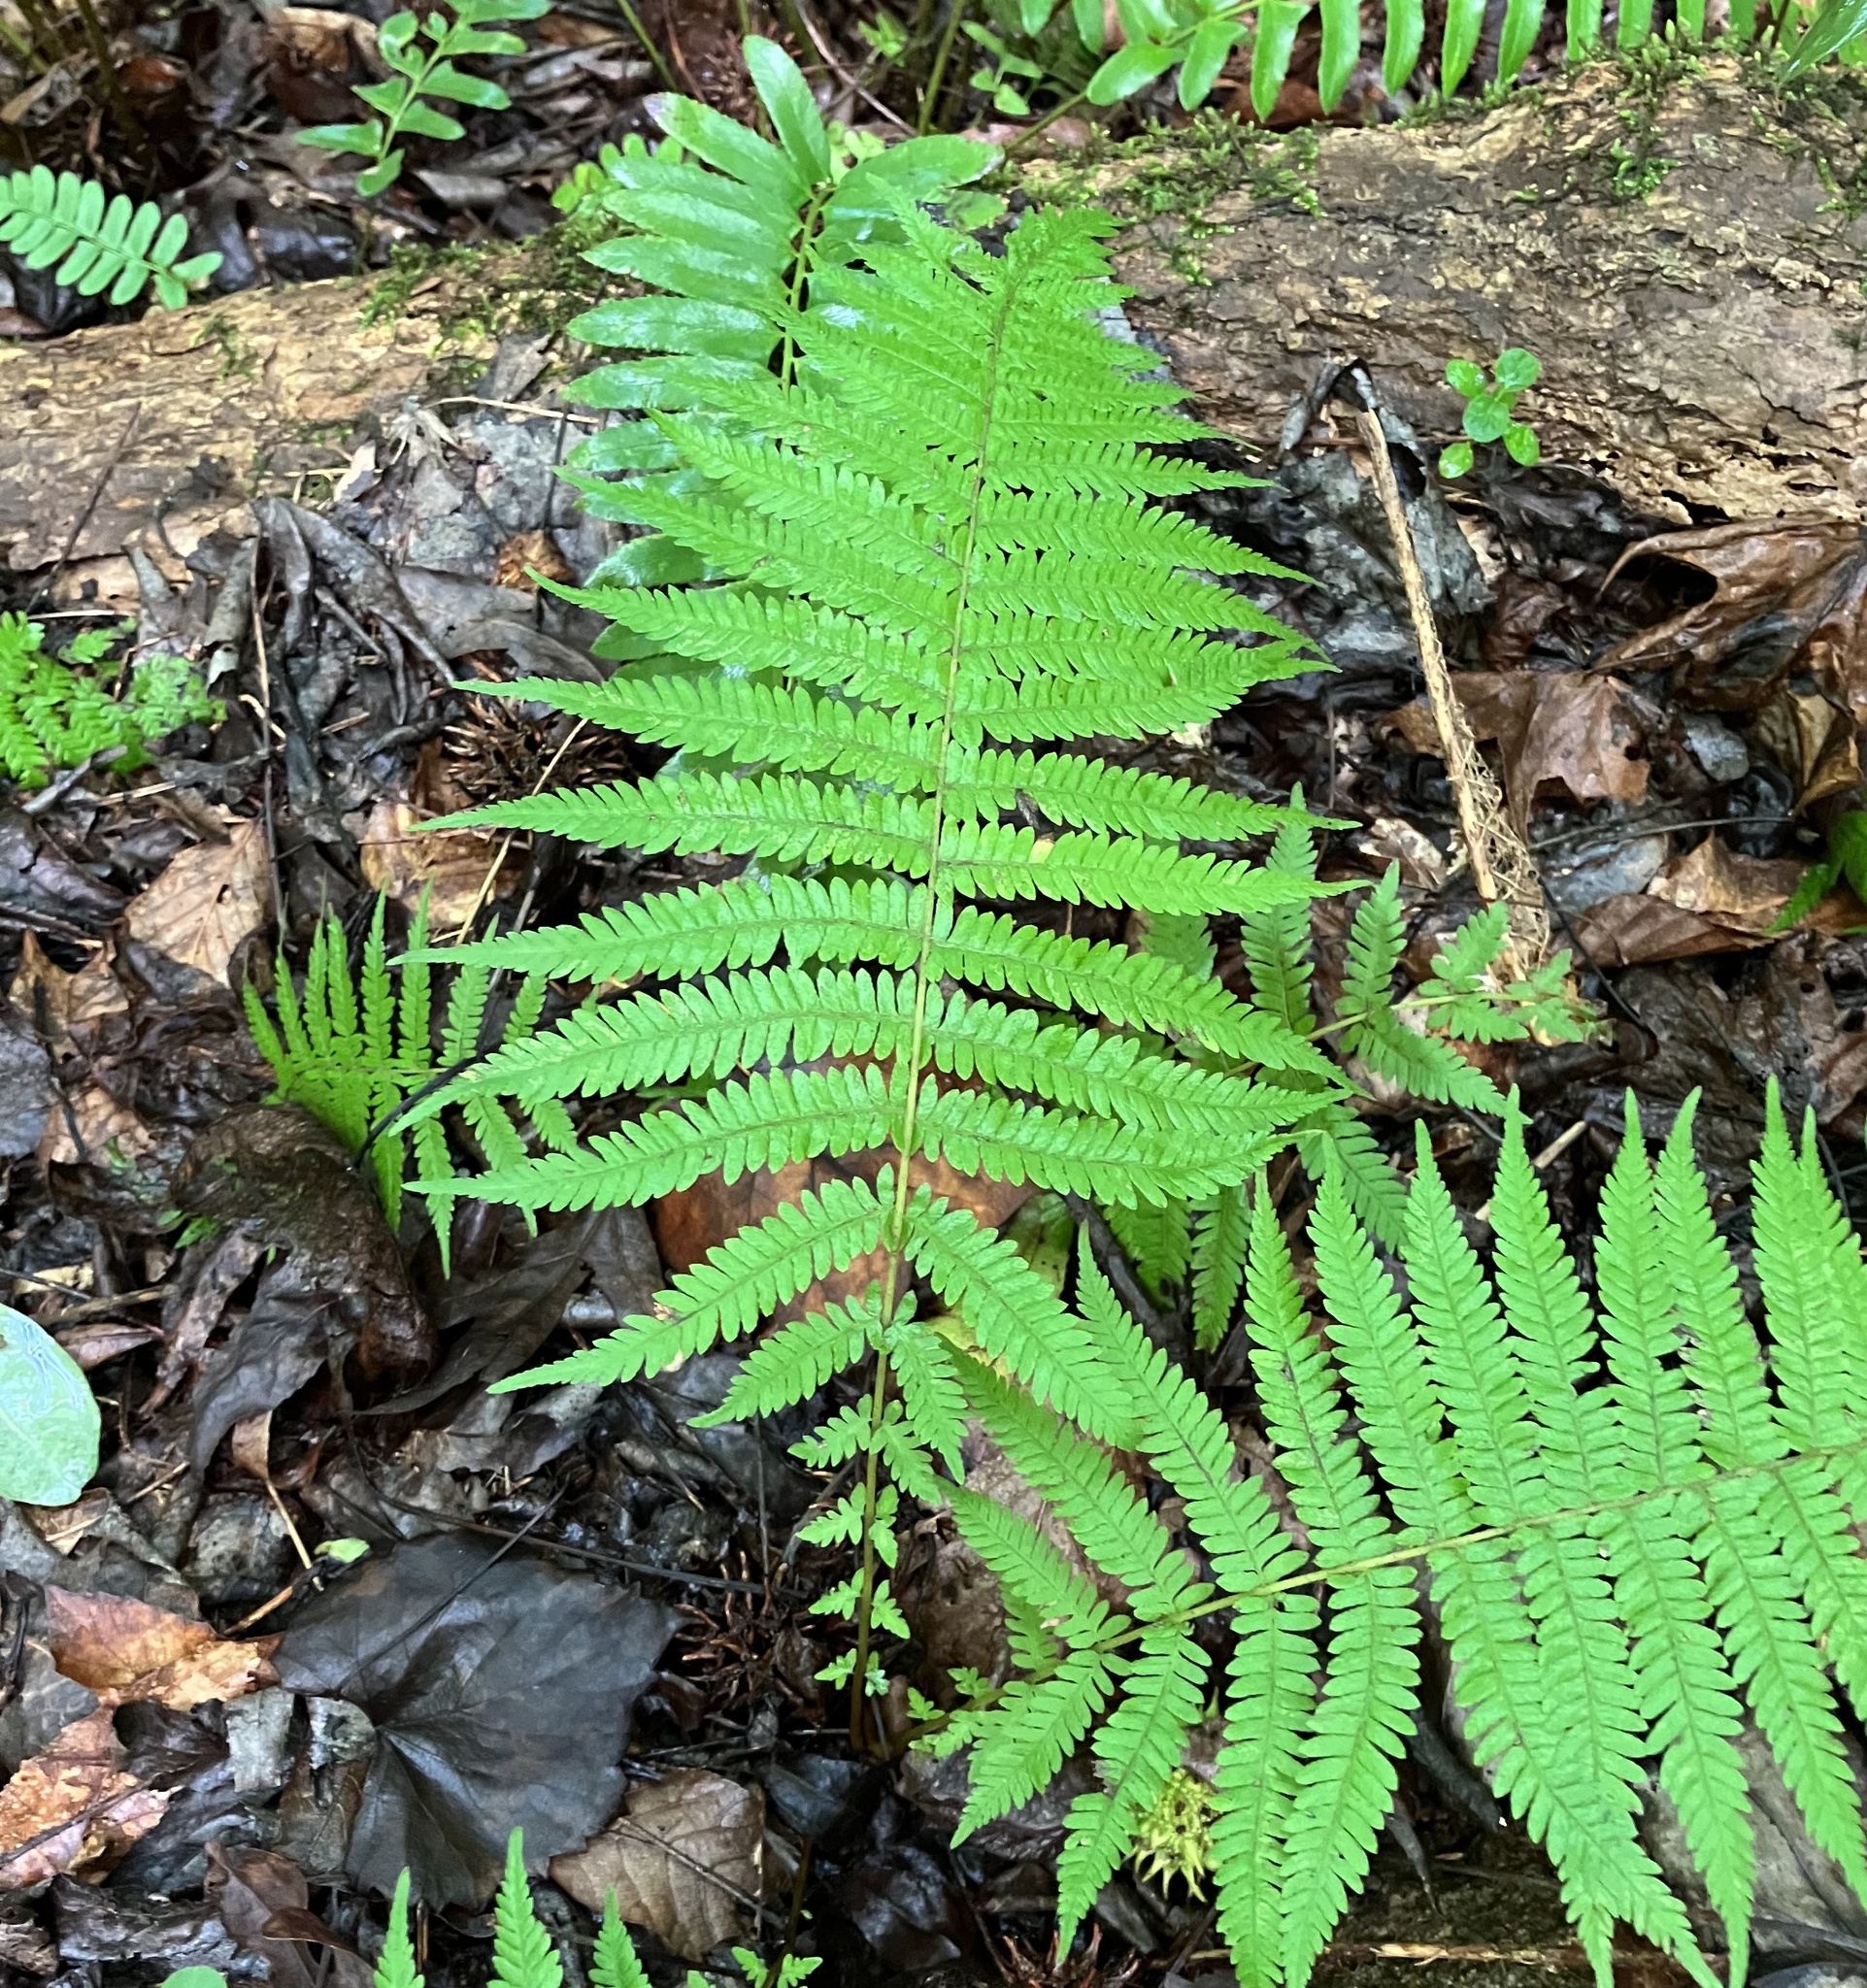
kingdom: Plantae
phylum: Tracheophyta
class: Polypodiopsida
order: Polypodiales
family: Thelypteridaceae
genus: Amauropelta
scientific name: Amauropelta noveboracensis
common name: New york fern
